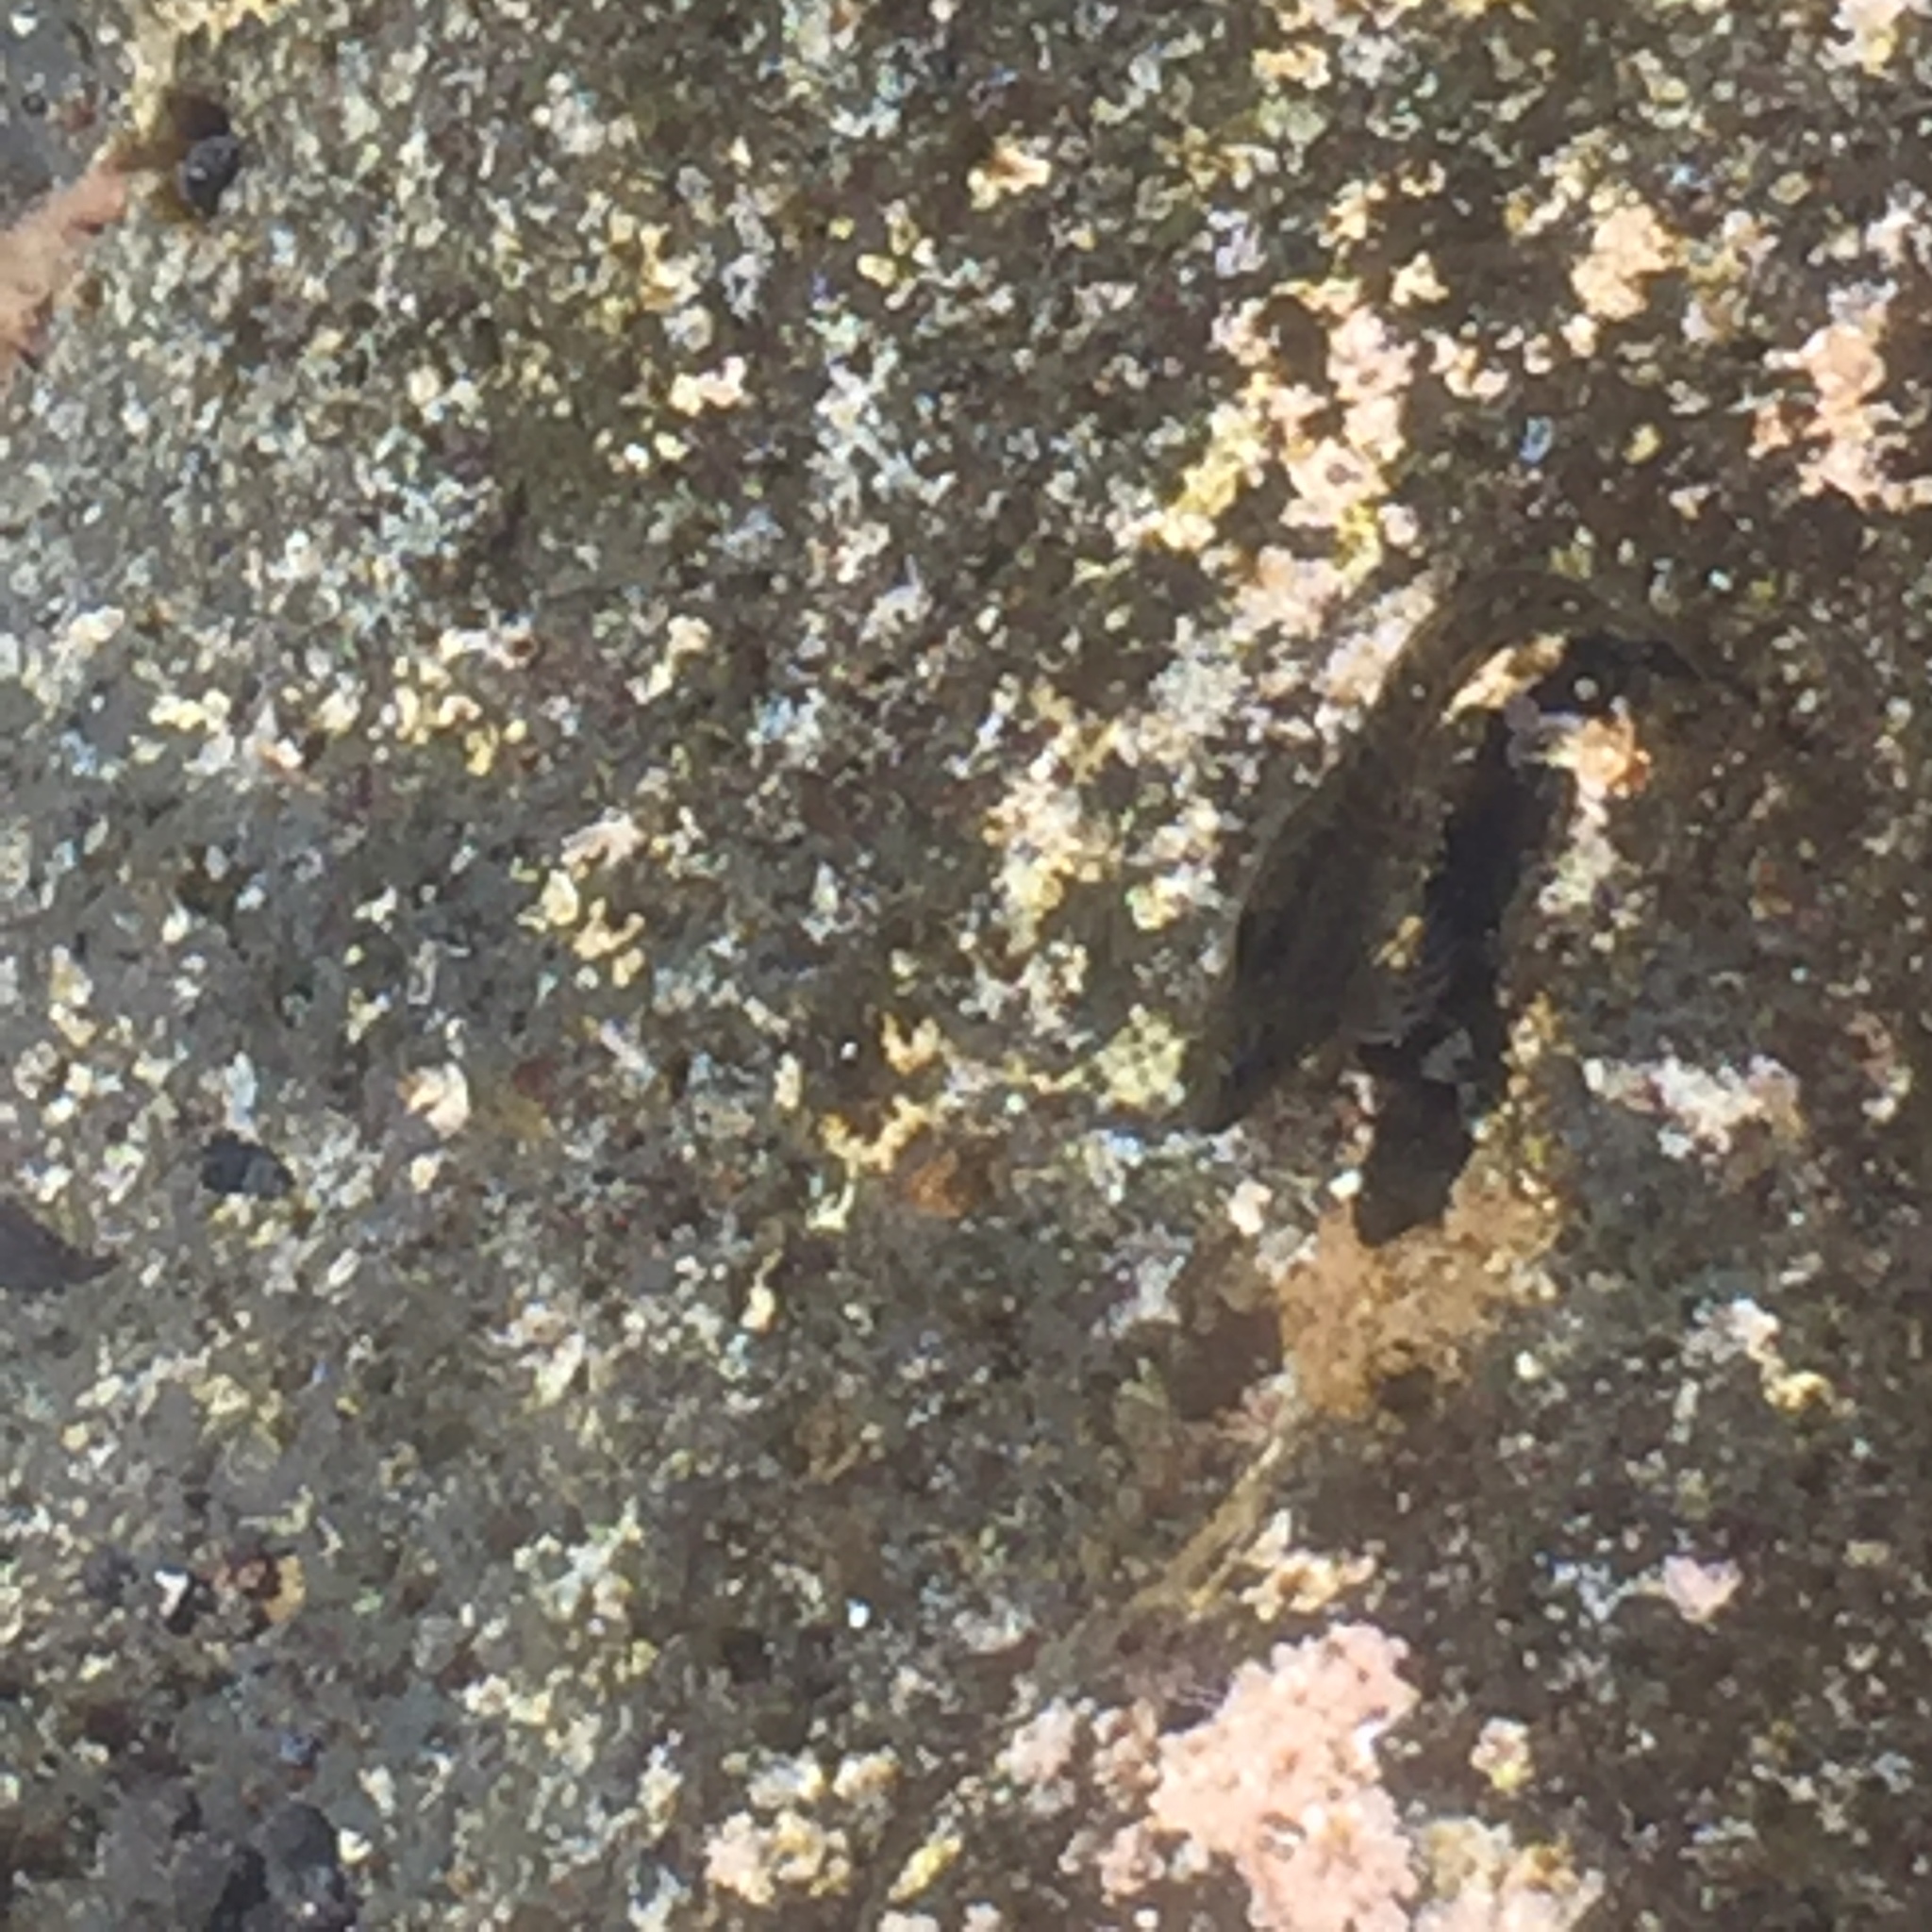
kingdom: Animalia
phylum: Chordata
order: Perciformes
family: Blenniidae
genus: Parablennius
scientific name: Parablennius parvicornis
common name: Rock-pool blenny
